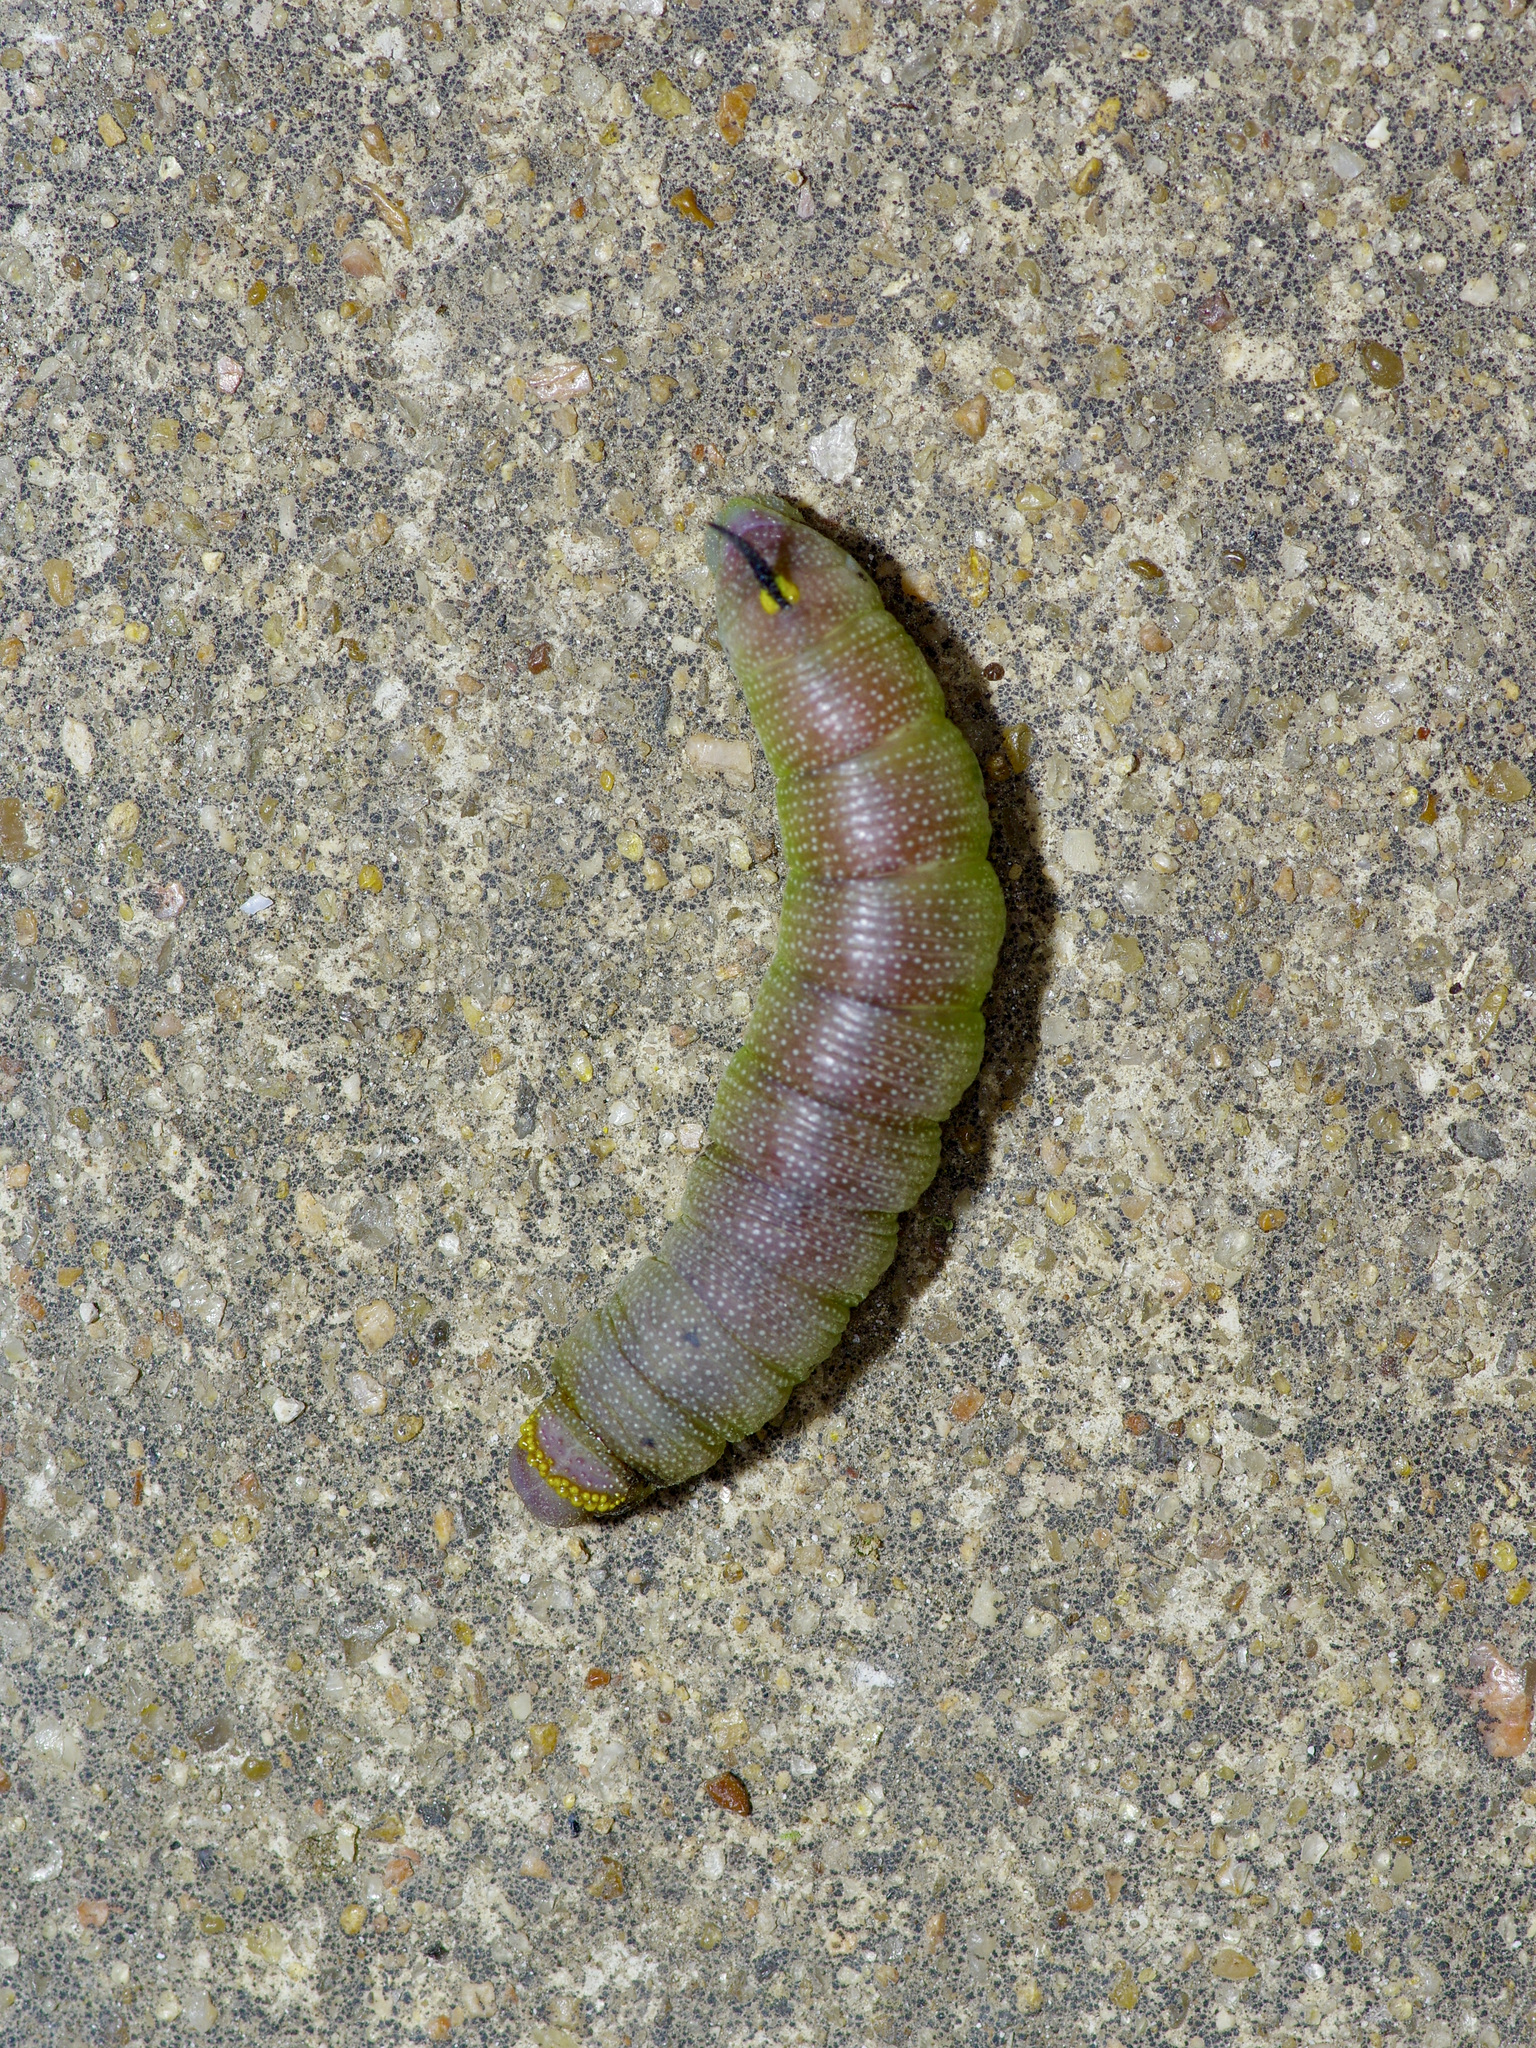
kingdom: Animalia
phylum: Arthropoda
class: Insecta
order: Lepidoptera
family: Sphingidae
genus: Hemaris
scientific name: Hemaris diffinis
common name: Bumblebee moth
